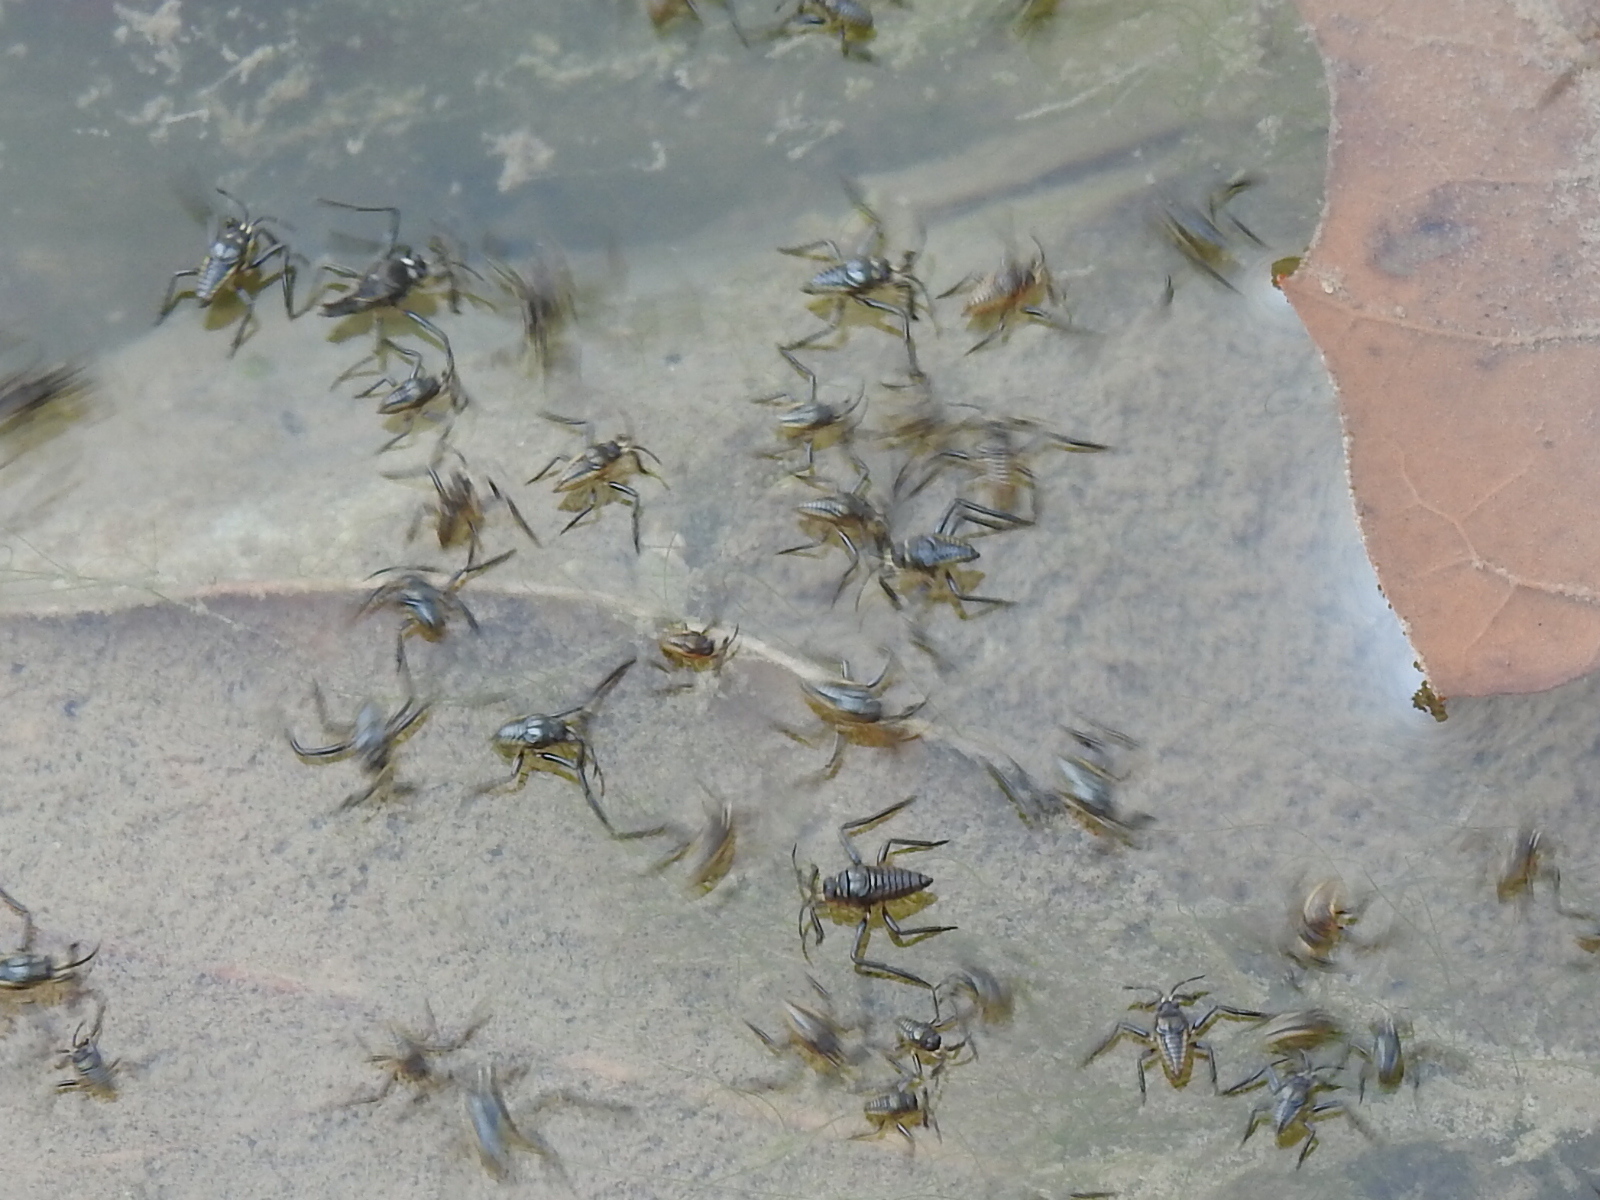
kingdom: Animalia
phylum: Arthropoda
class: Insecta
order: Hemiptera
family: Veliidae
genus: Rhagovelia
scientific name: Rhagovelia
